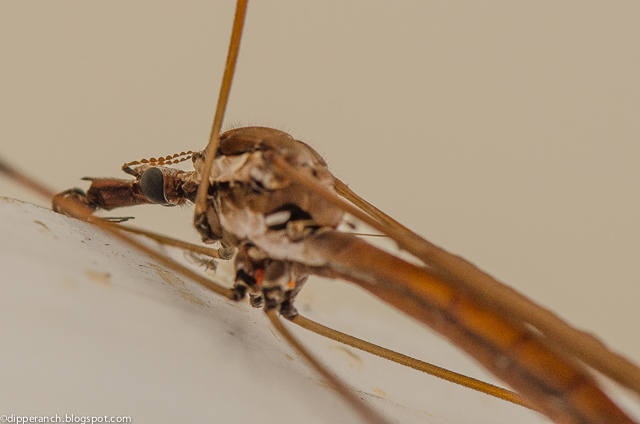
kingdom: Animalia
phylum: Arthropoda
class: Insecta
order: Diptera
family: Tipulidae
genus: Holorusia
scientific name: Holorusia hespera
